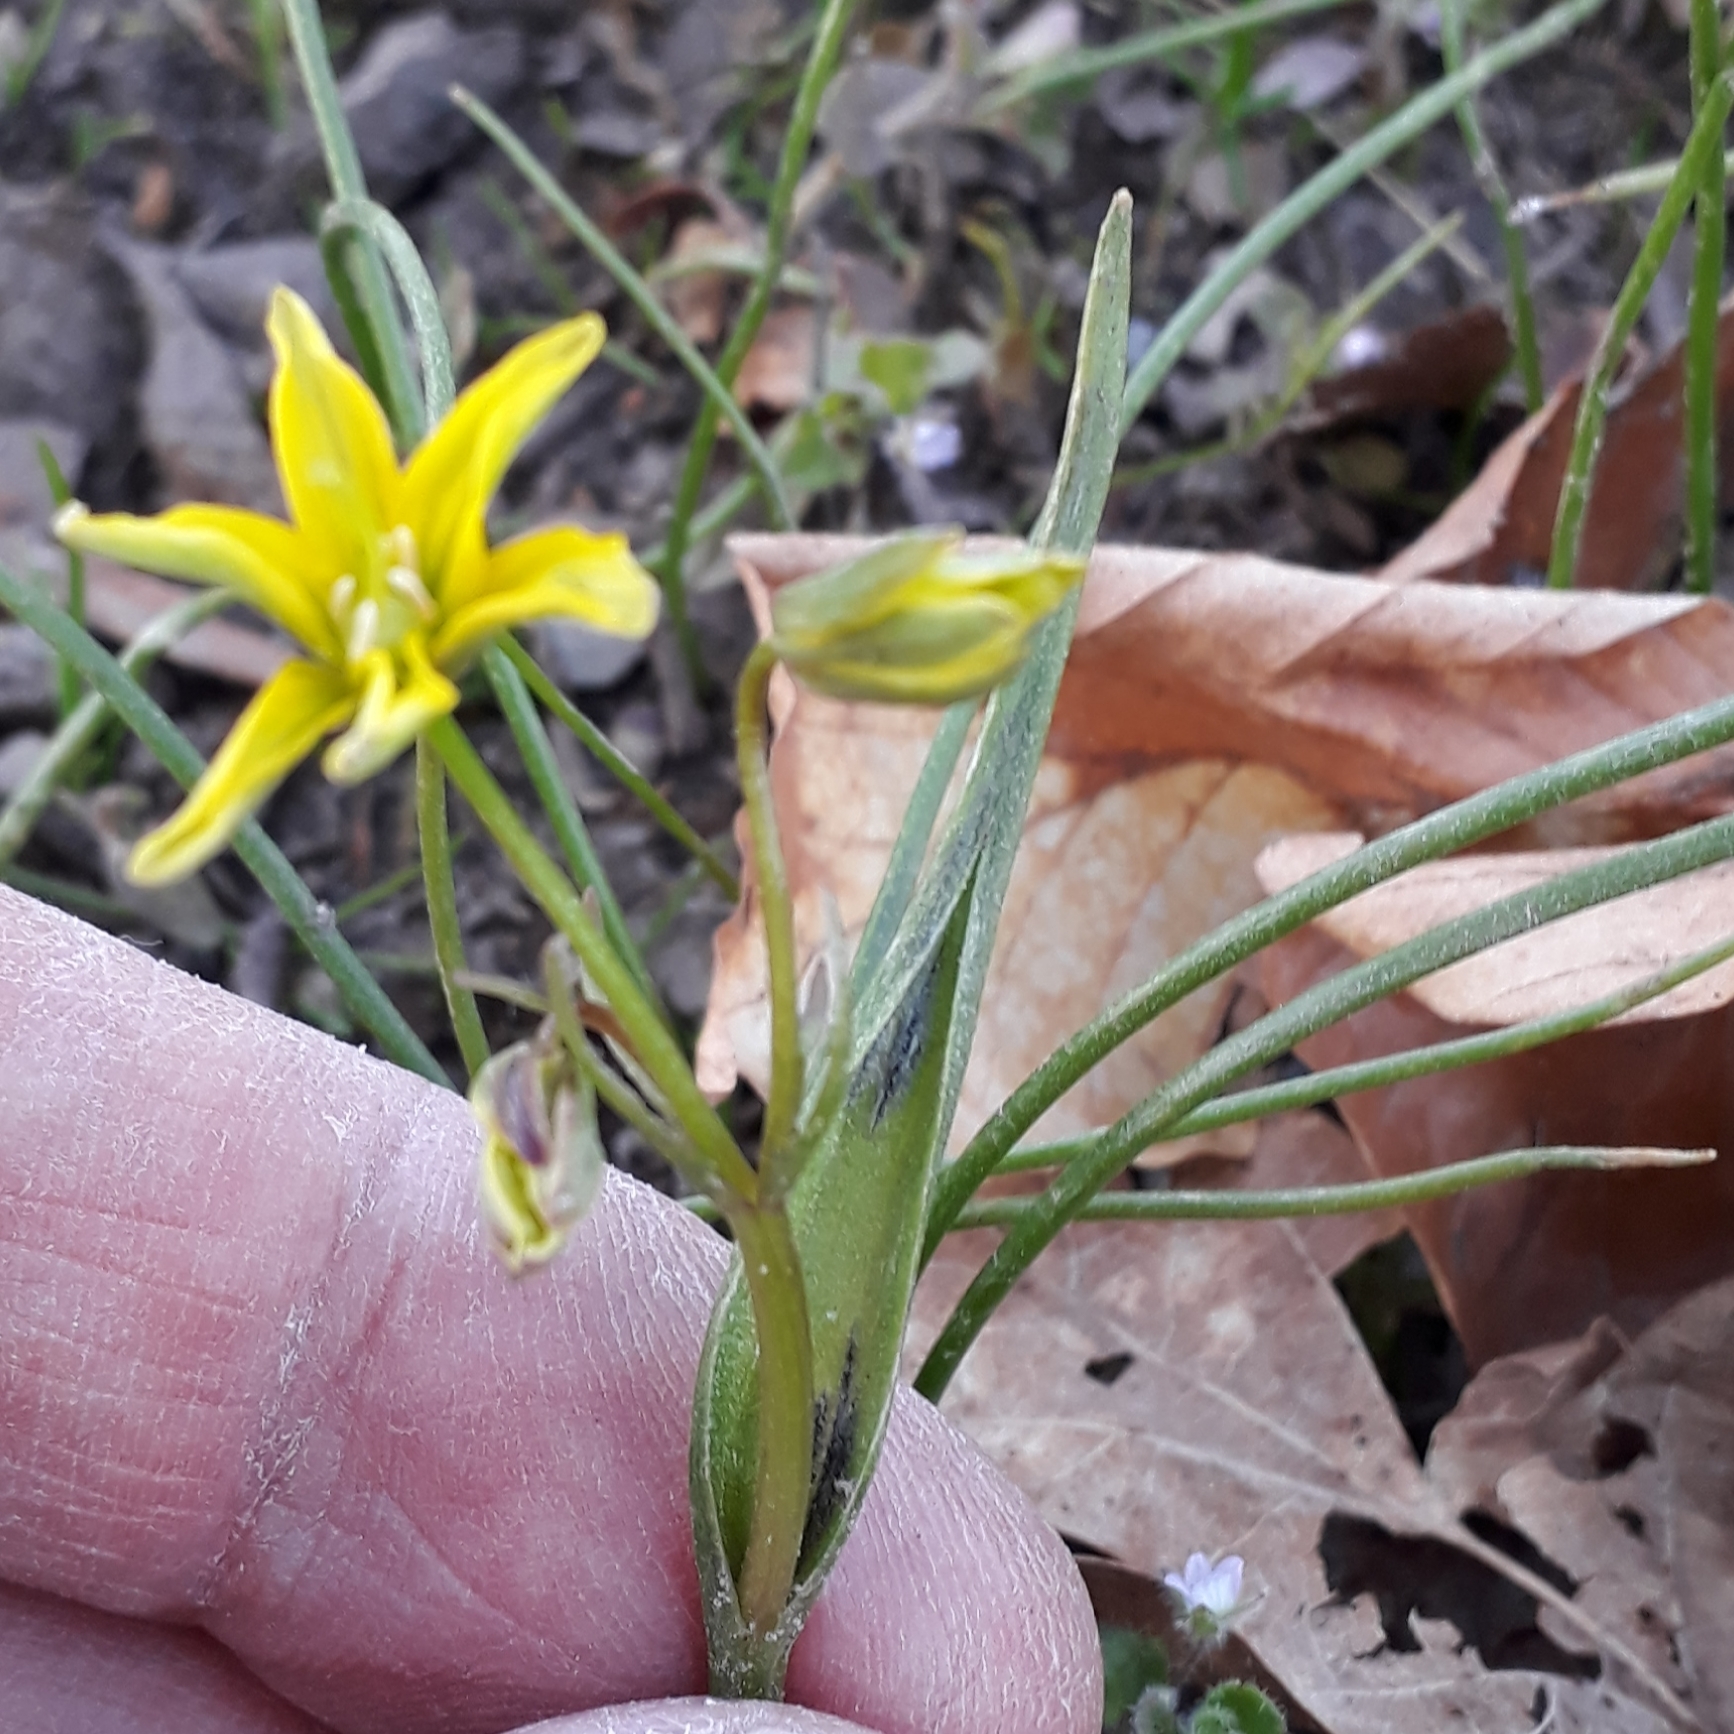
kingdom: Plantae
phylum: Tracheophyta
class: Liliopsida
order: Liliales
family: Liliaceae
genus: Gagea
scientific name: Gagea spathacea
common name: Belgian gagea
